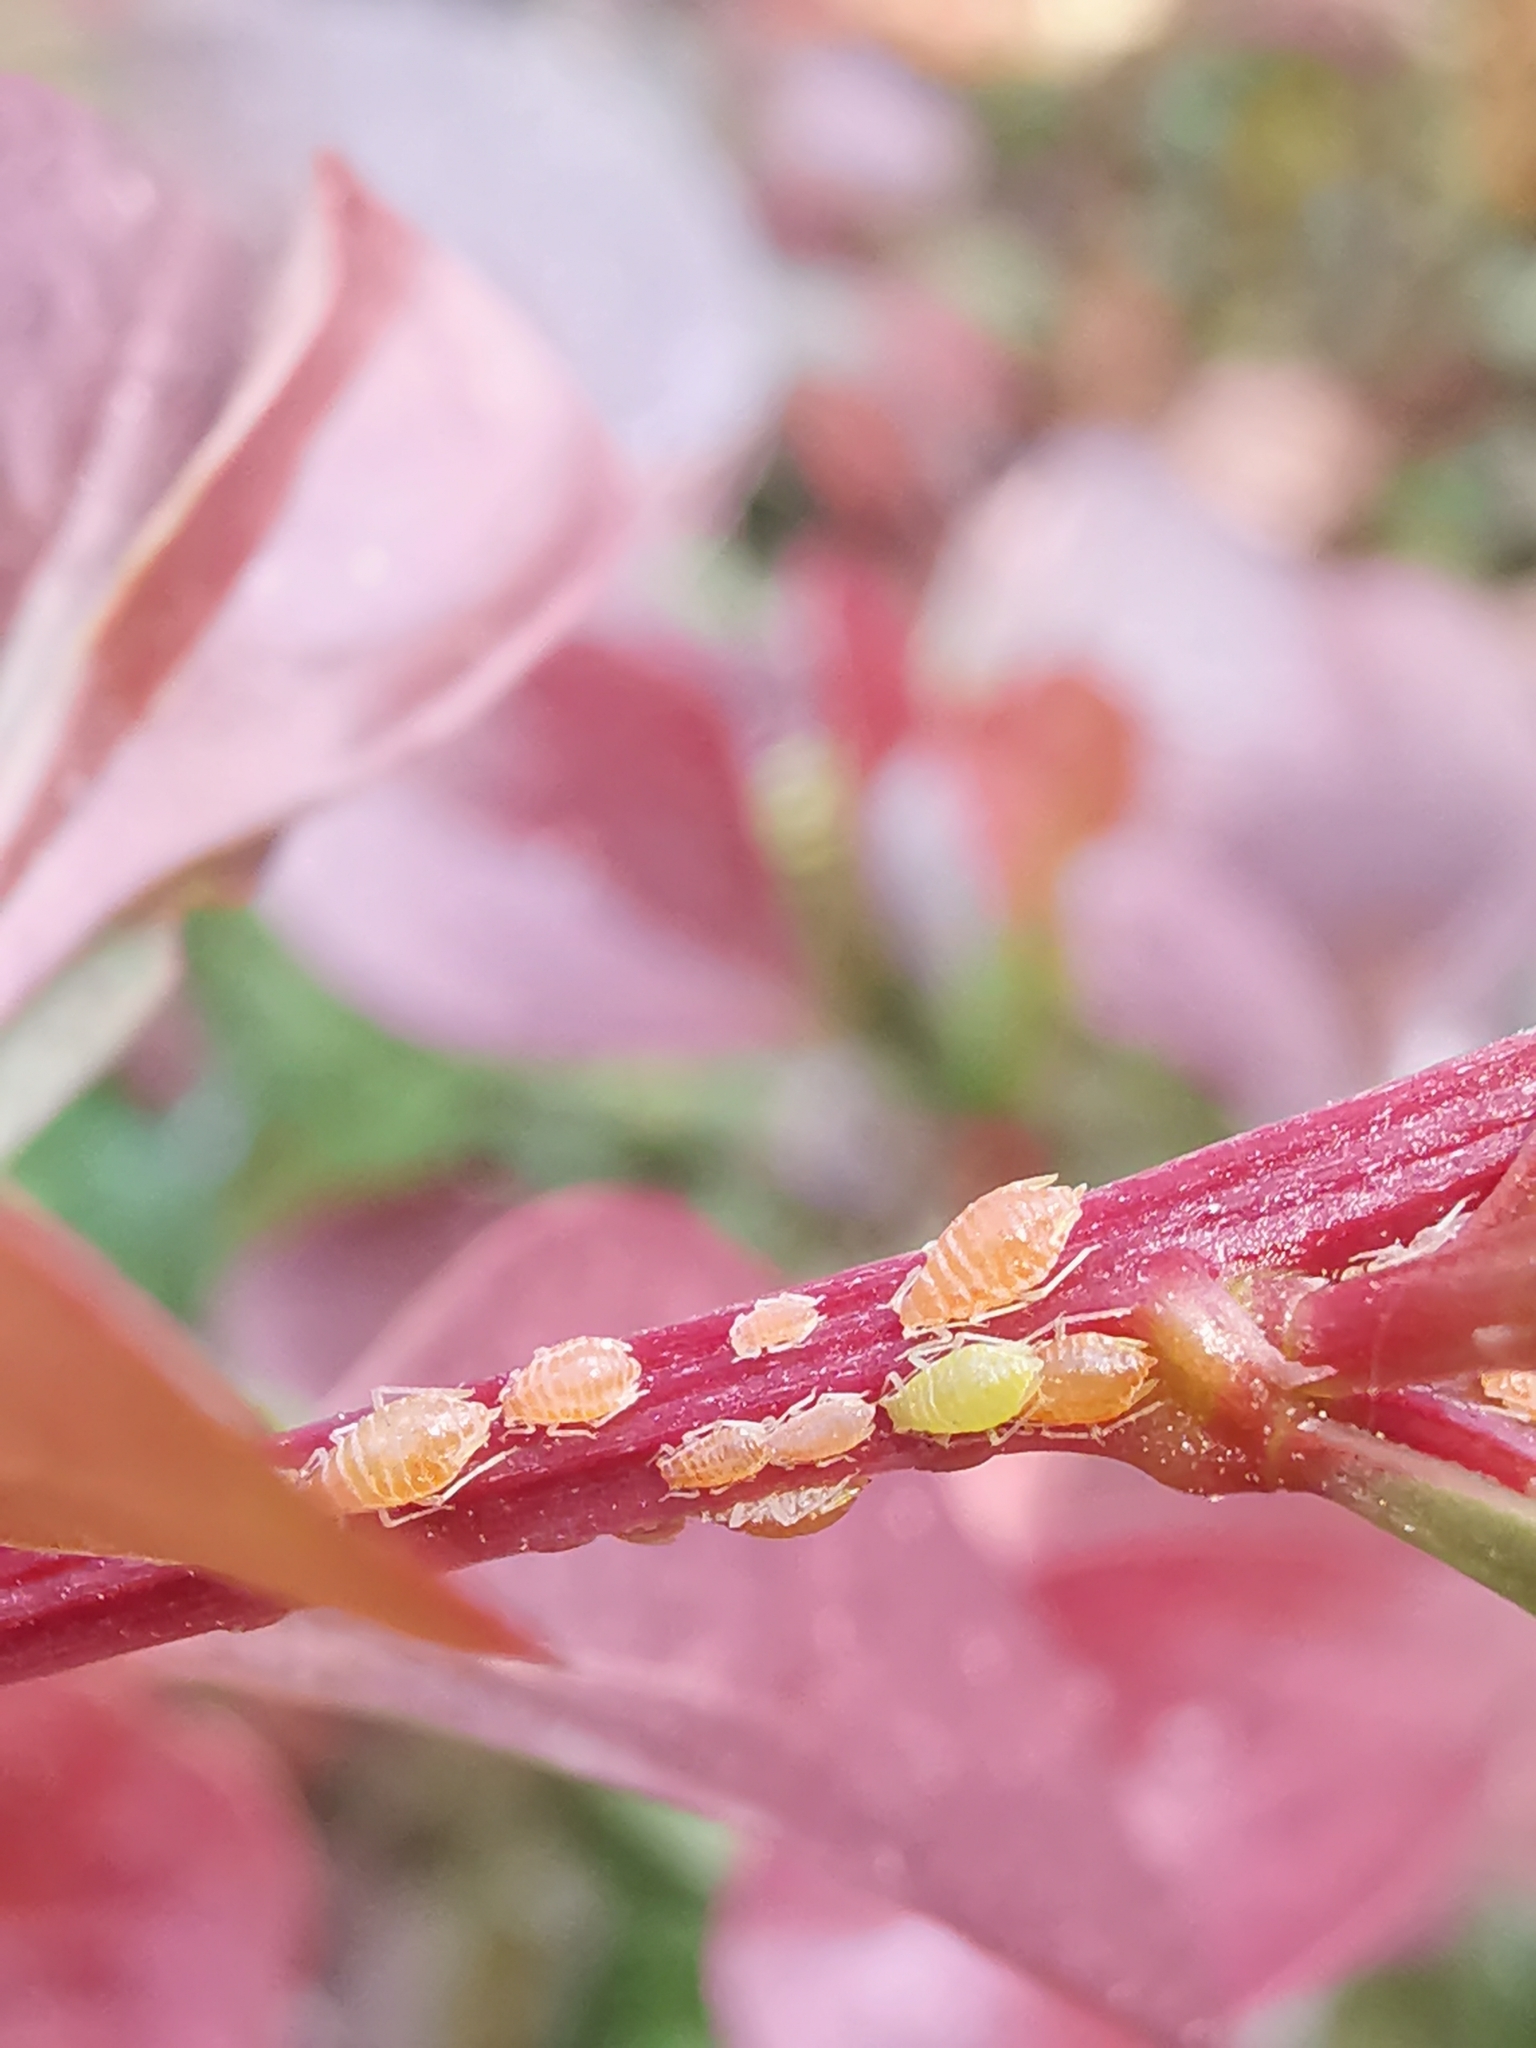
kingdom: Animalia
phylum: Arthropoda
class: Insecta
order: Hemiptera
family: Aphididae
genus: Liosomaphis
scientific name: Liosomaphis berberidis
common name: Barberry aphid
